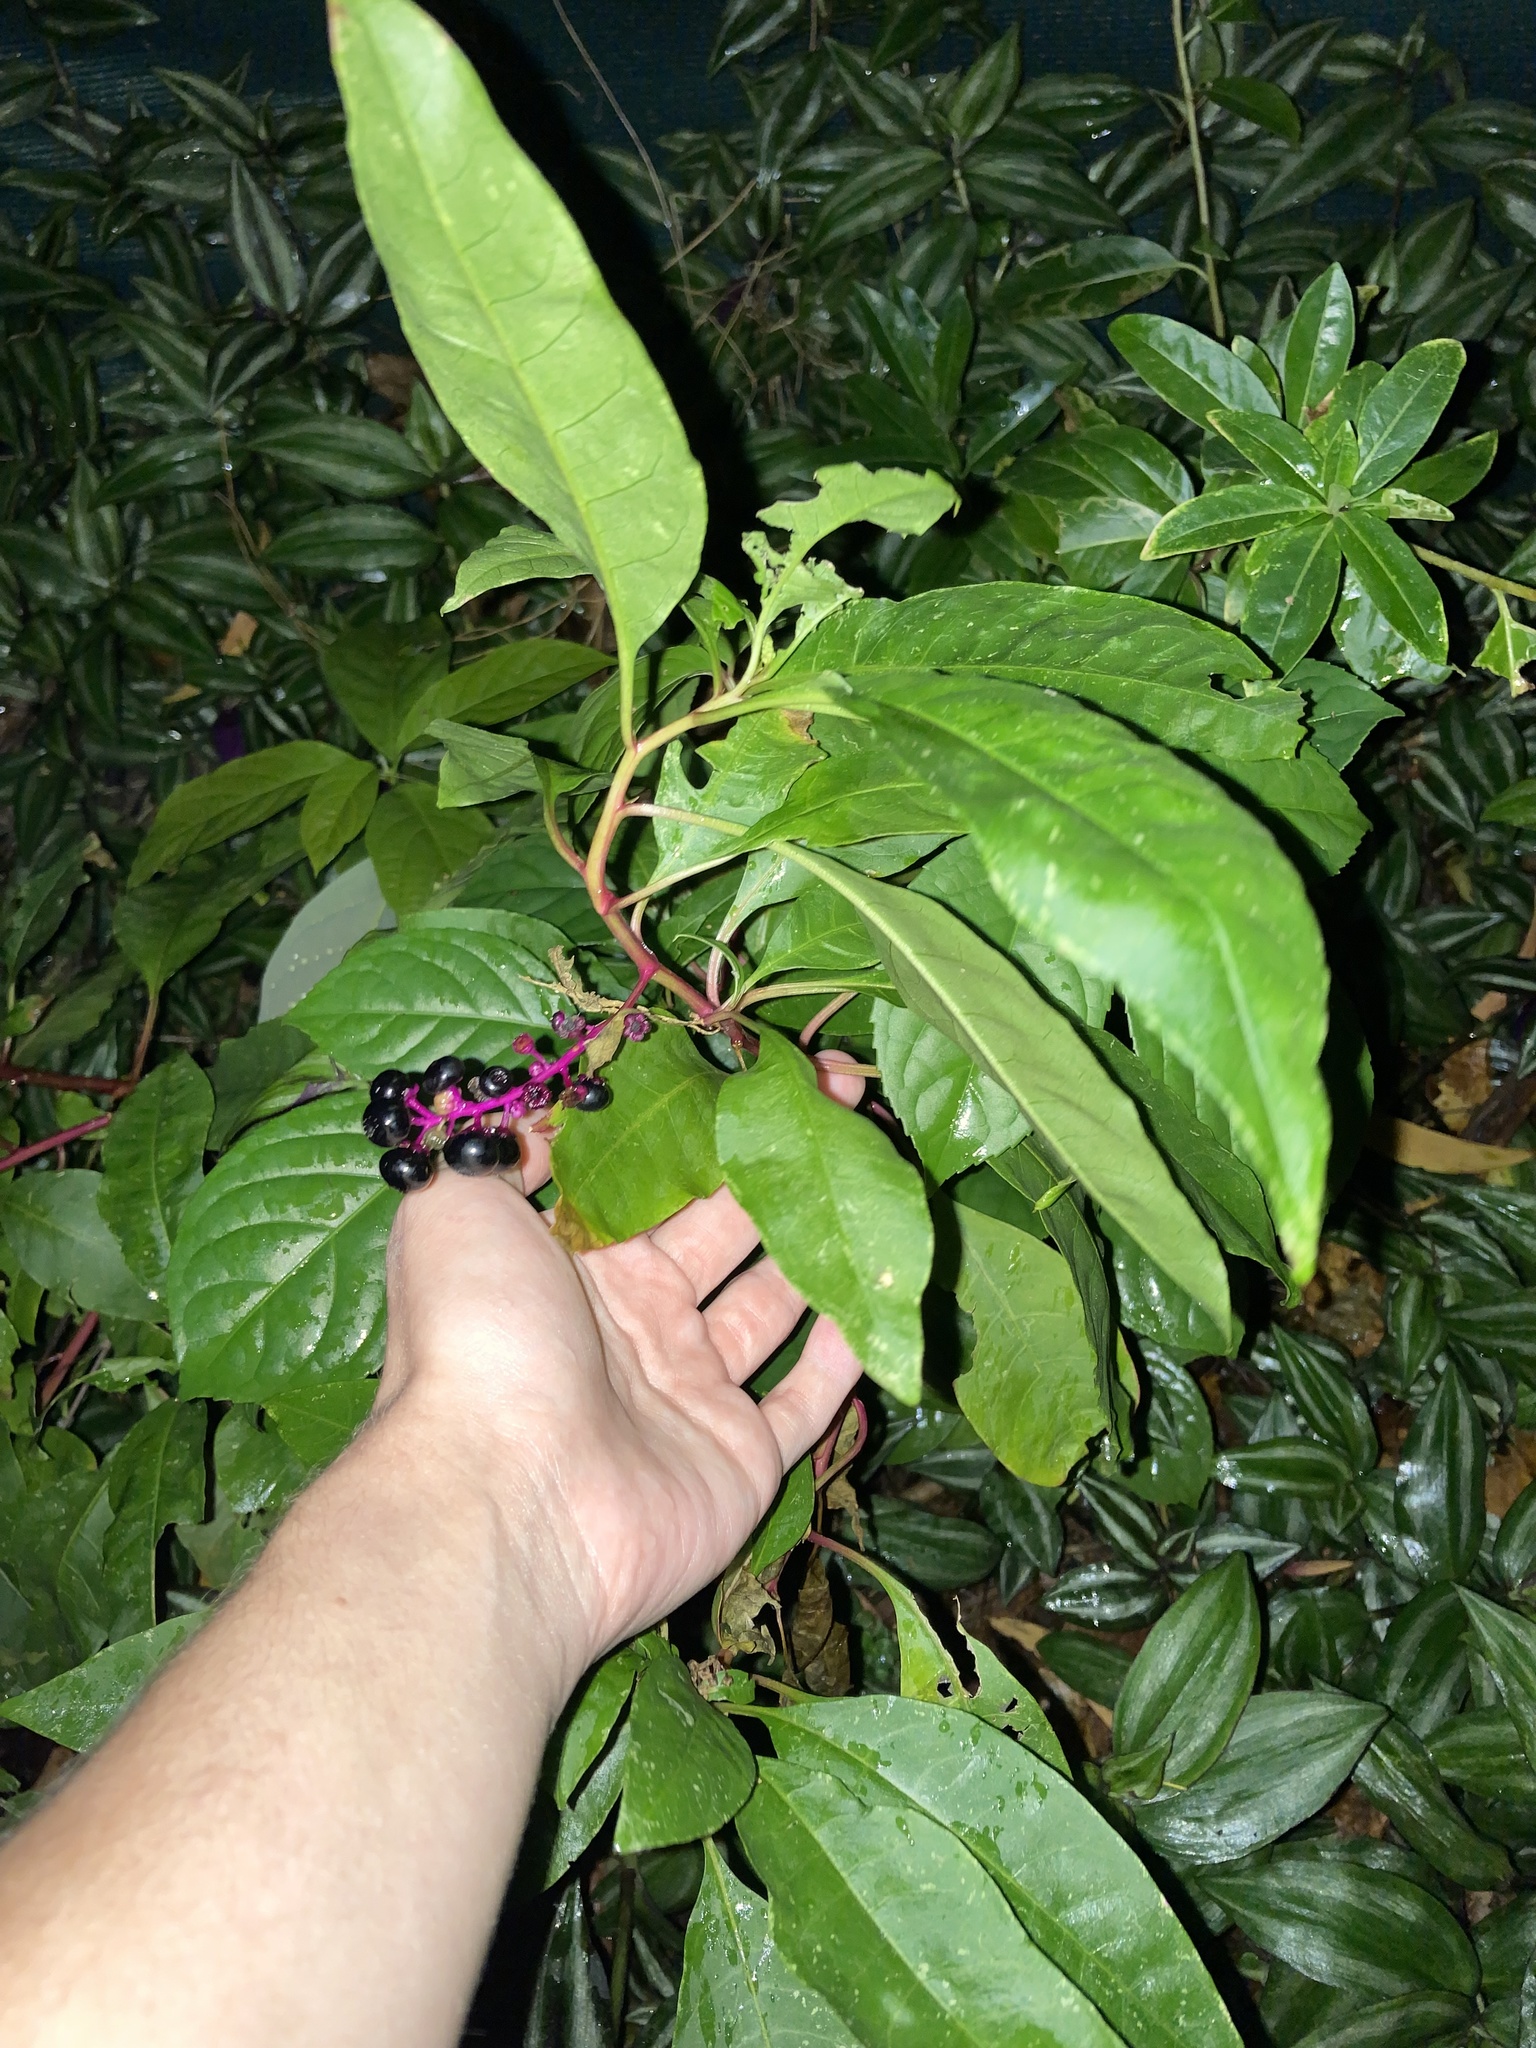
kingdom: Plantae
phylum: Tracheophyta
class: Magnoliopsida
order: Caryophyllales
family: Phytolaccaceae
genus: Phytolacca
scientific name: Phytolacca americana
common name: American pokeweed
